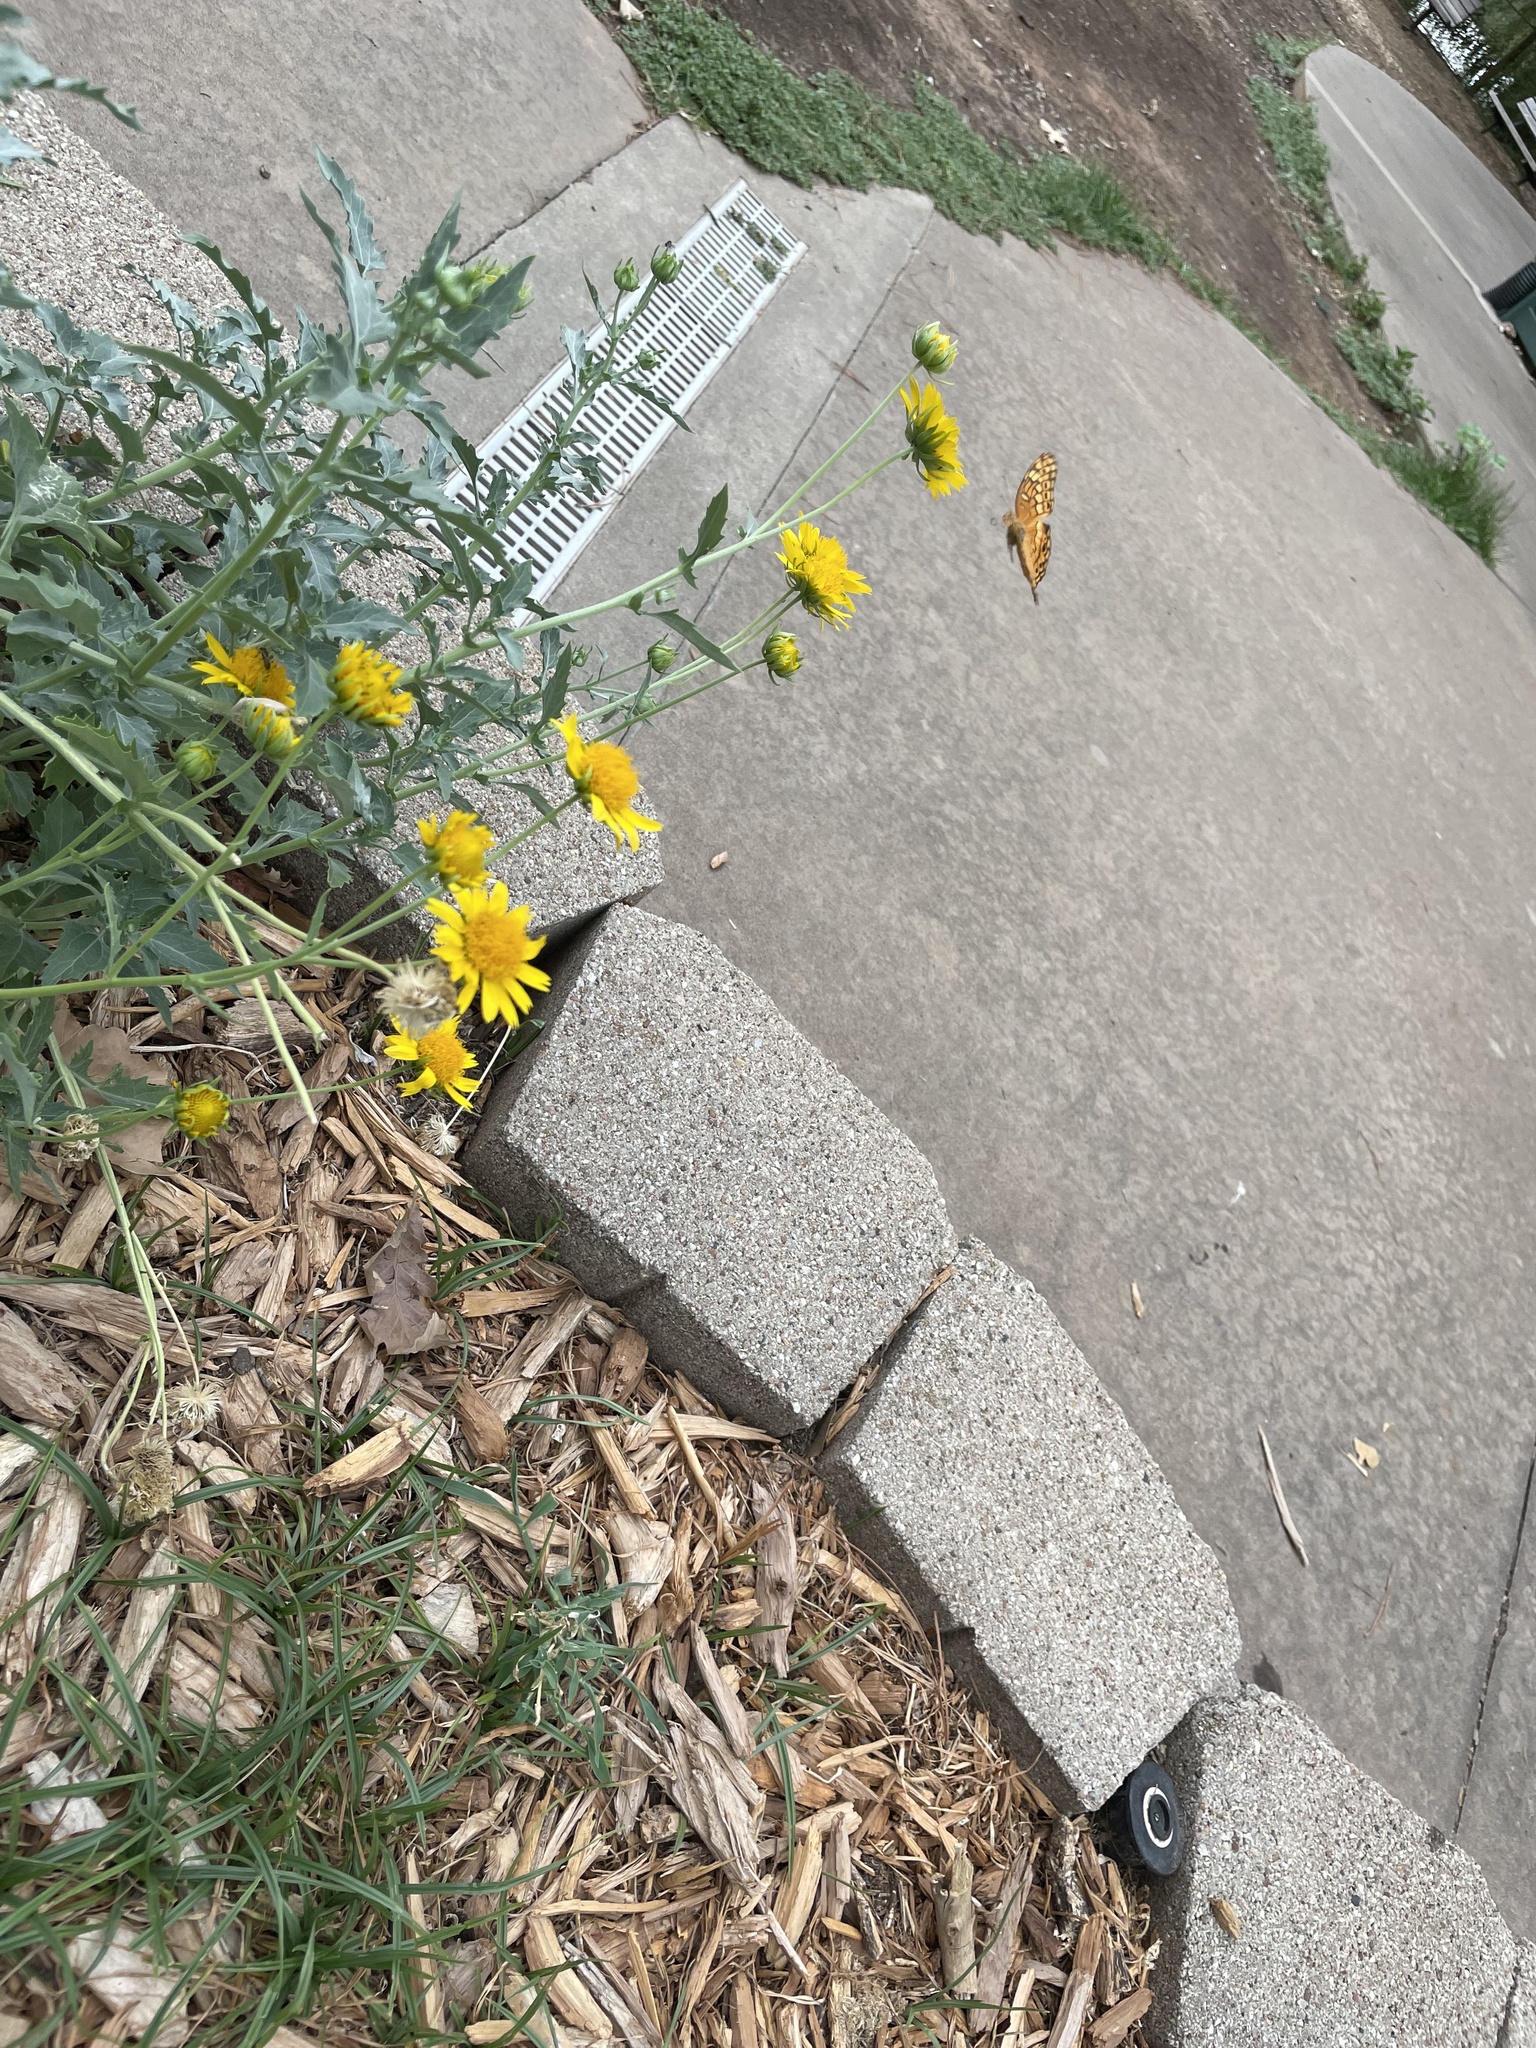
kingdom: Animalia
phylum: Arthropoda
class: Insecta
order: Lepidoptera
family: Nymphalidae
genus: Euptoieta
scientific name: Euptoieta claudia
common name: Variegated fritillary
